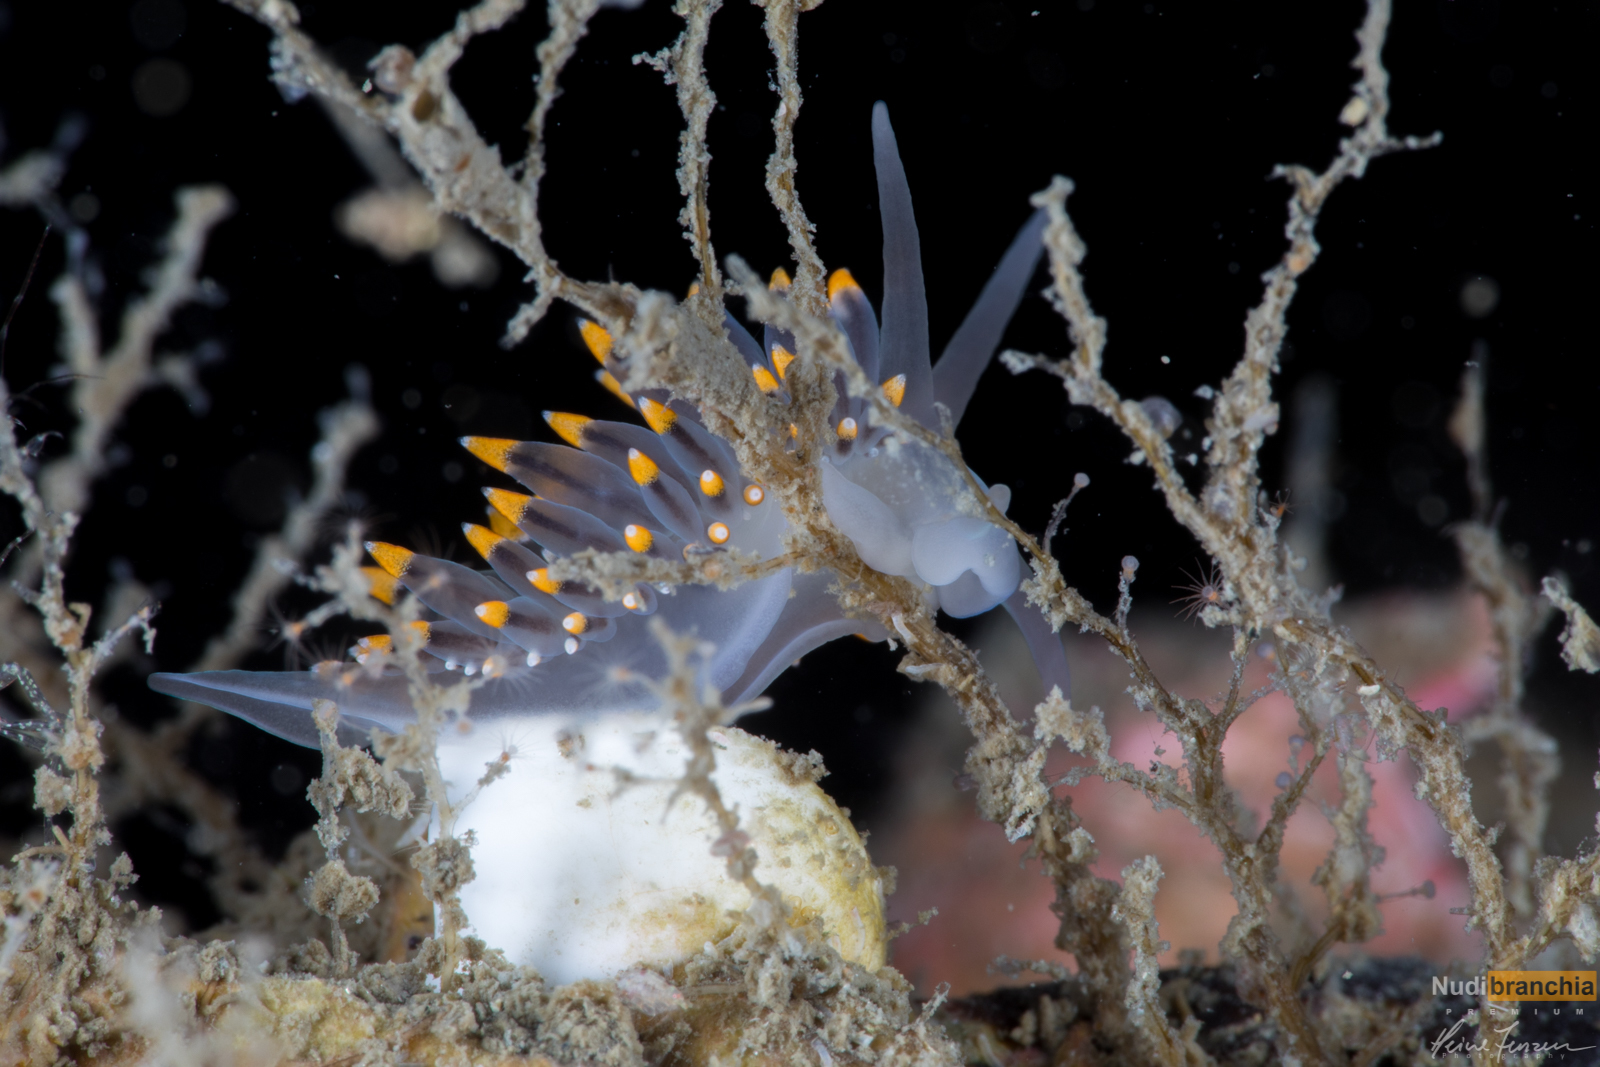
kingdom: Animalia
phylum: Mollusca
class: Gastropoda
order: Nudibranchia
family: Eubranchidae
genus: Eubranchus
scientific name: Eubranchus tricolor
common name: Painted balloon aeolis
